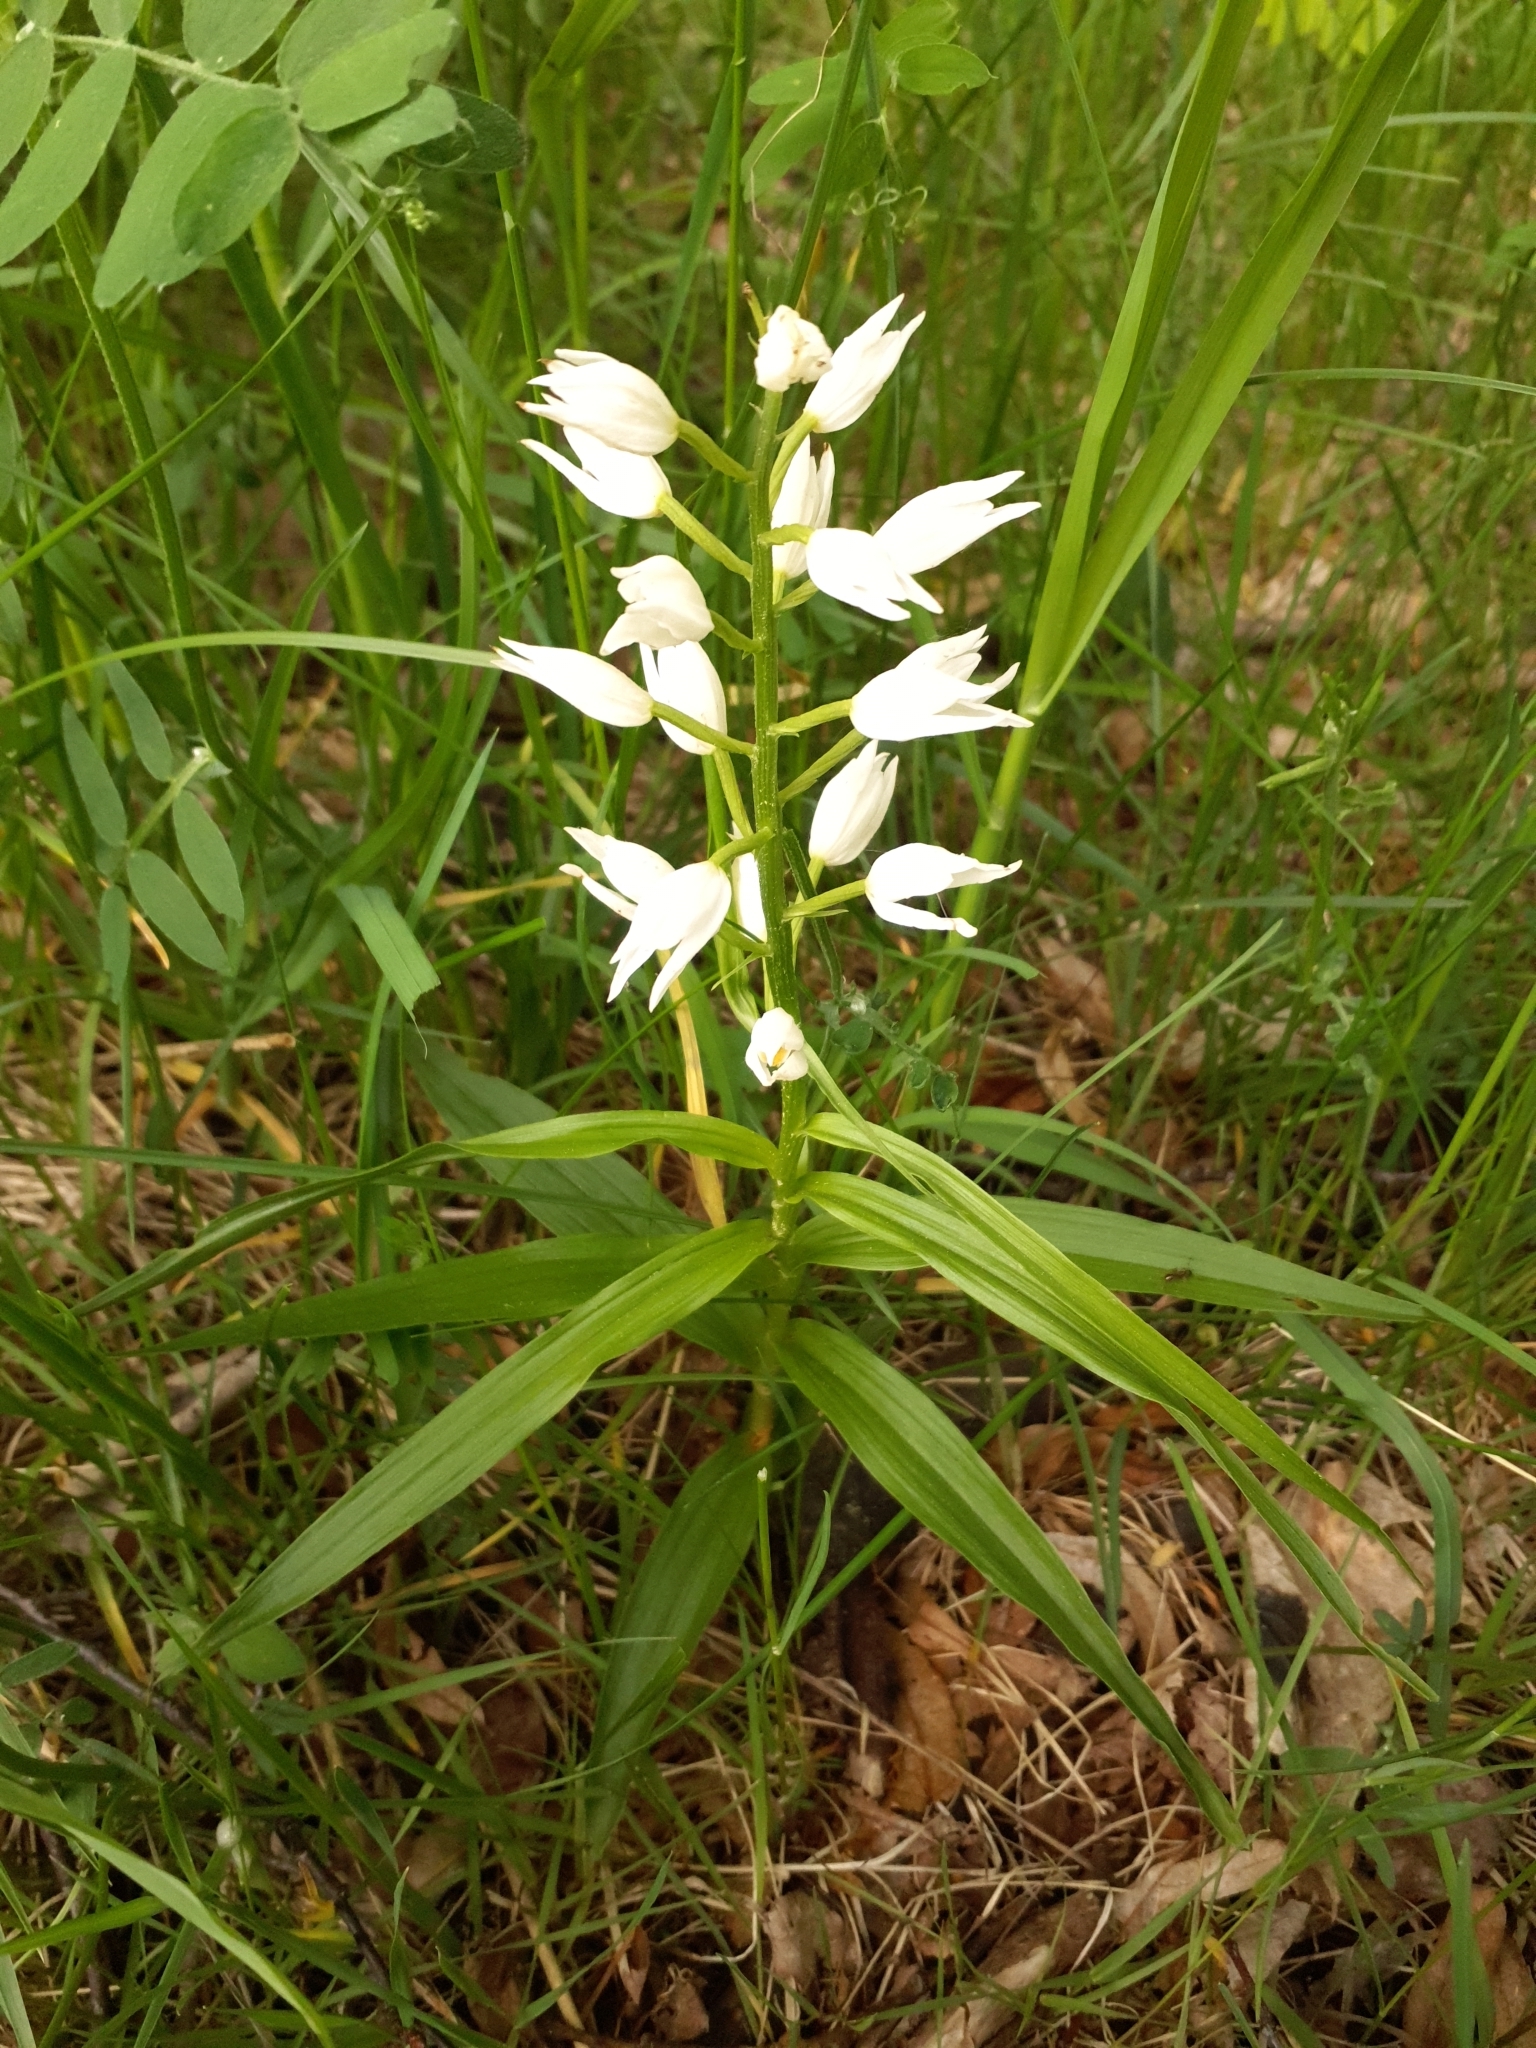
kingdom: Plantae
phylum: Tracheophyta
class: Liliopsida
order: Asparagales
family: Orchidaceae
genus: Cephalanthera
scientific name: Cephalanthera longifolia
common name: Narrow-leaved helleborine
